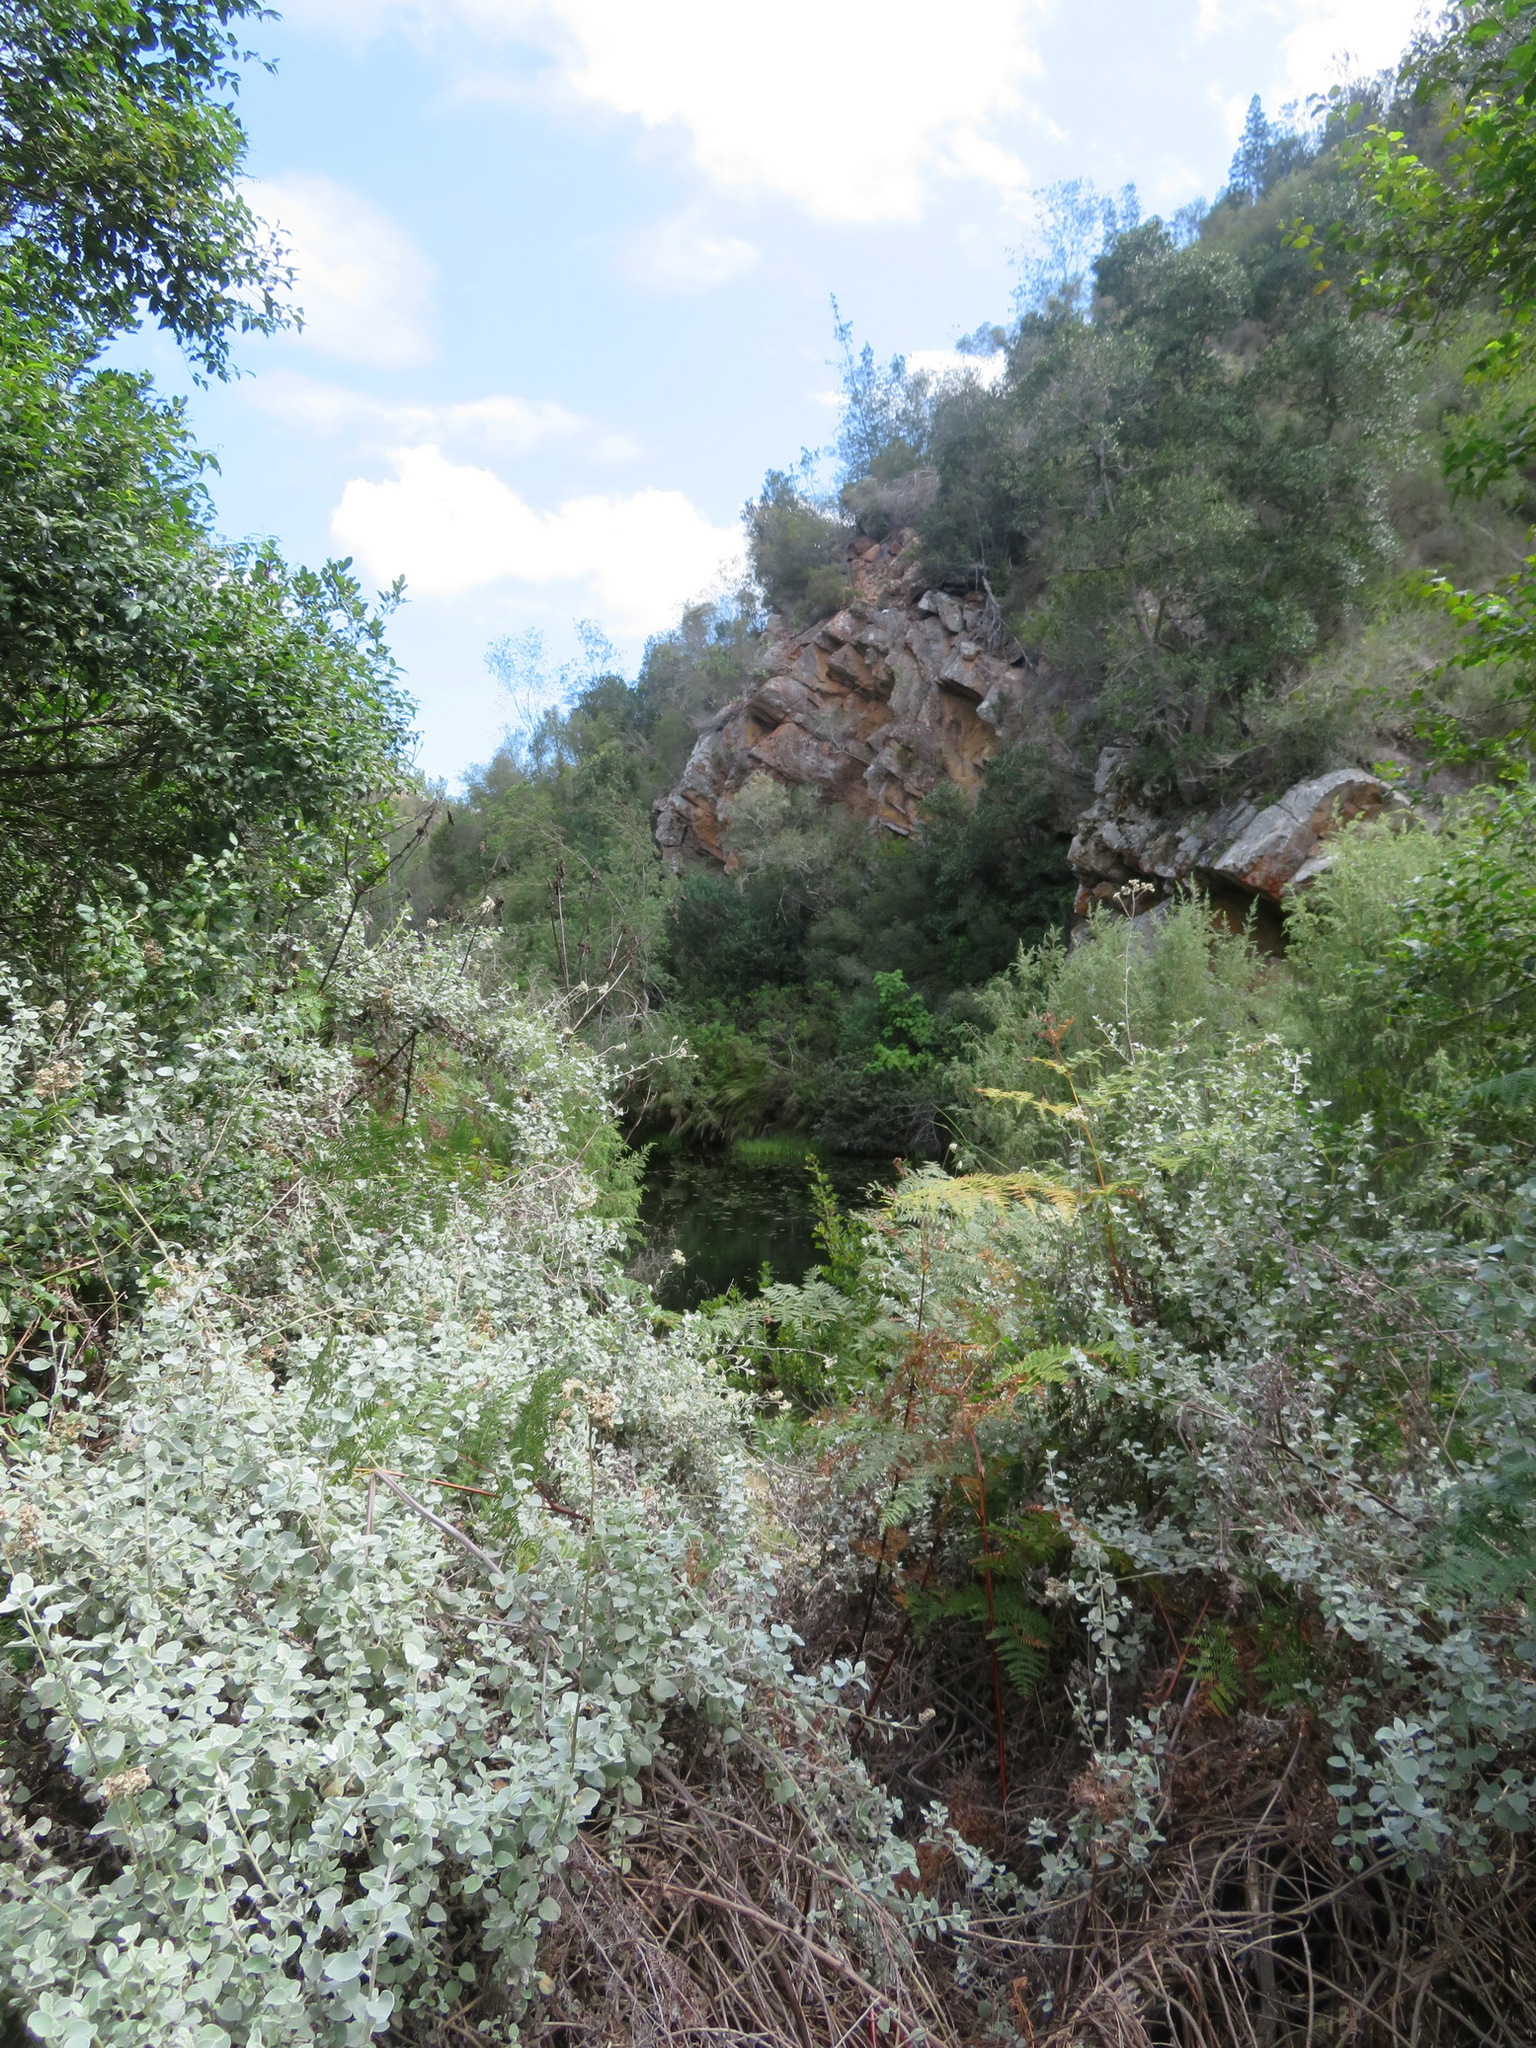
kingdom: Plantae
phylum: Tracheophyta
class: Magnoliopsida
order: Asterales
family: Asteraceae
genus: Helichrysum
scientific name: Helichrysum petiolare
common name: Licorice-plant
